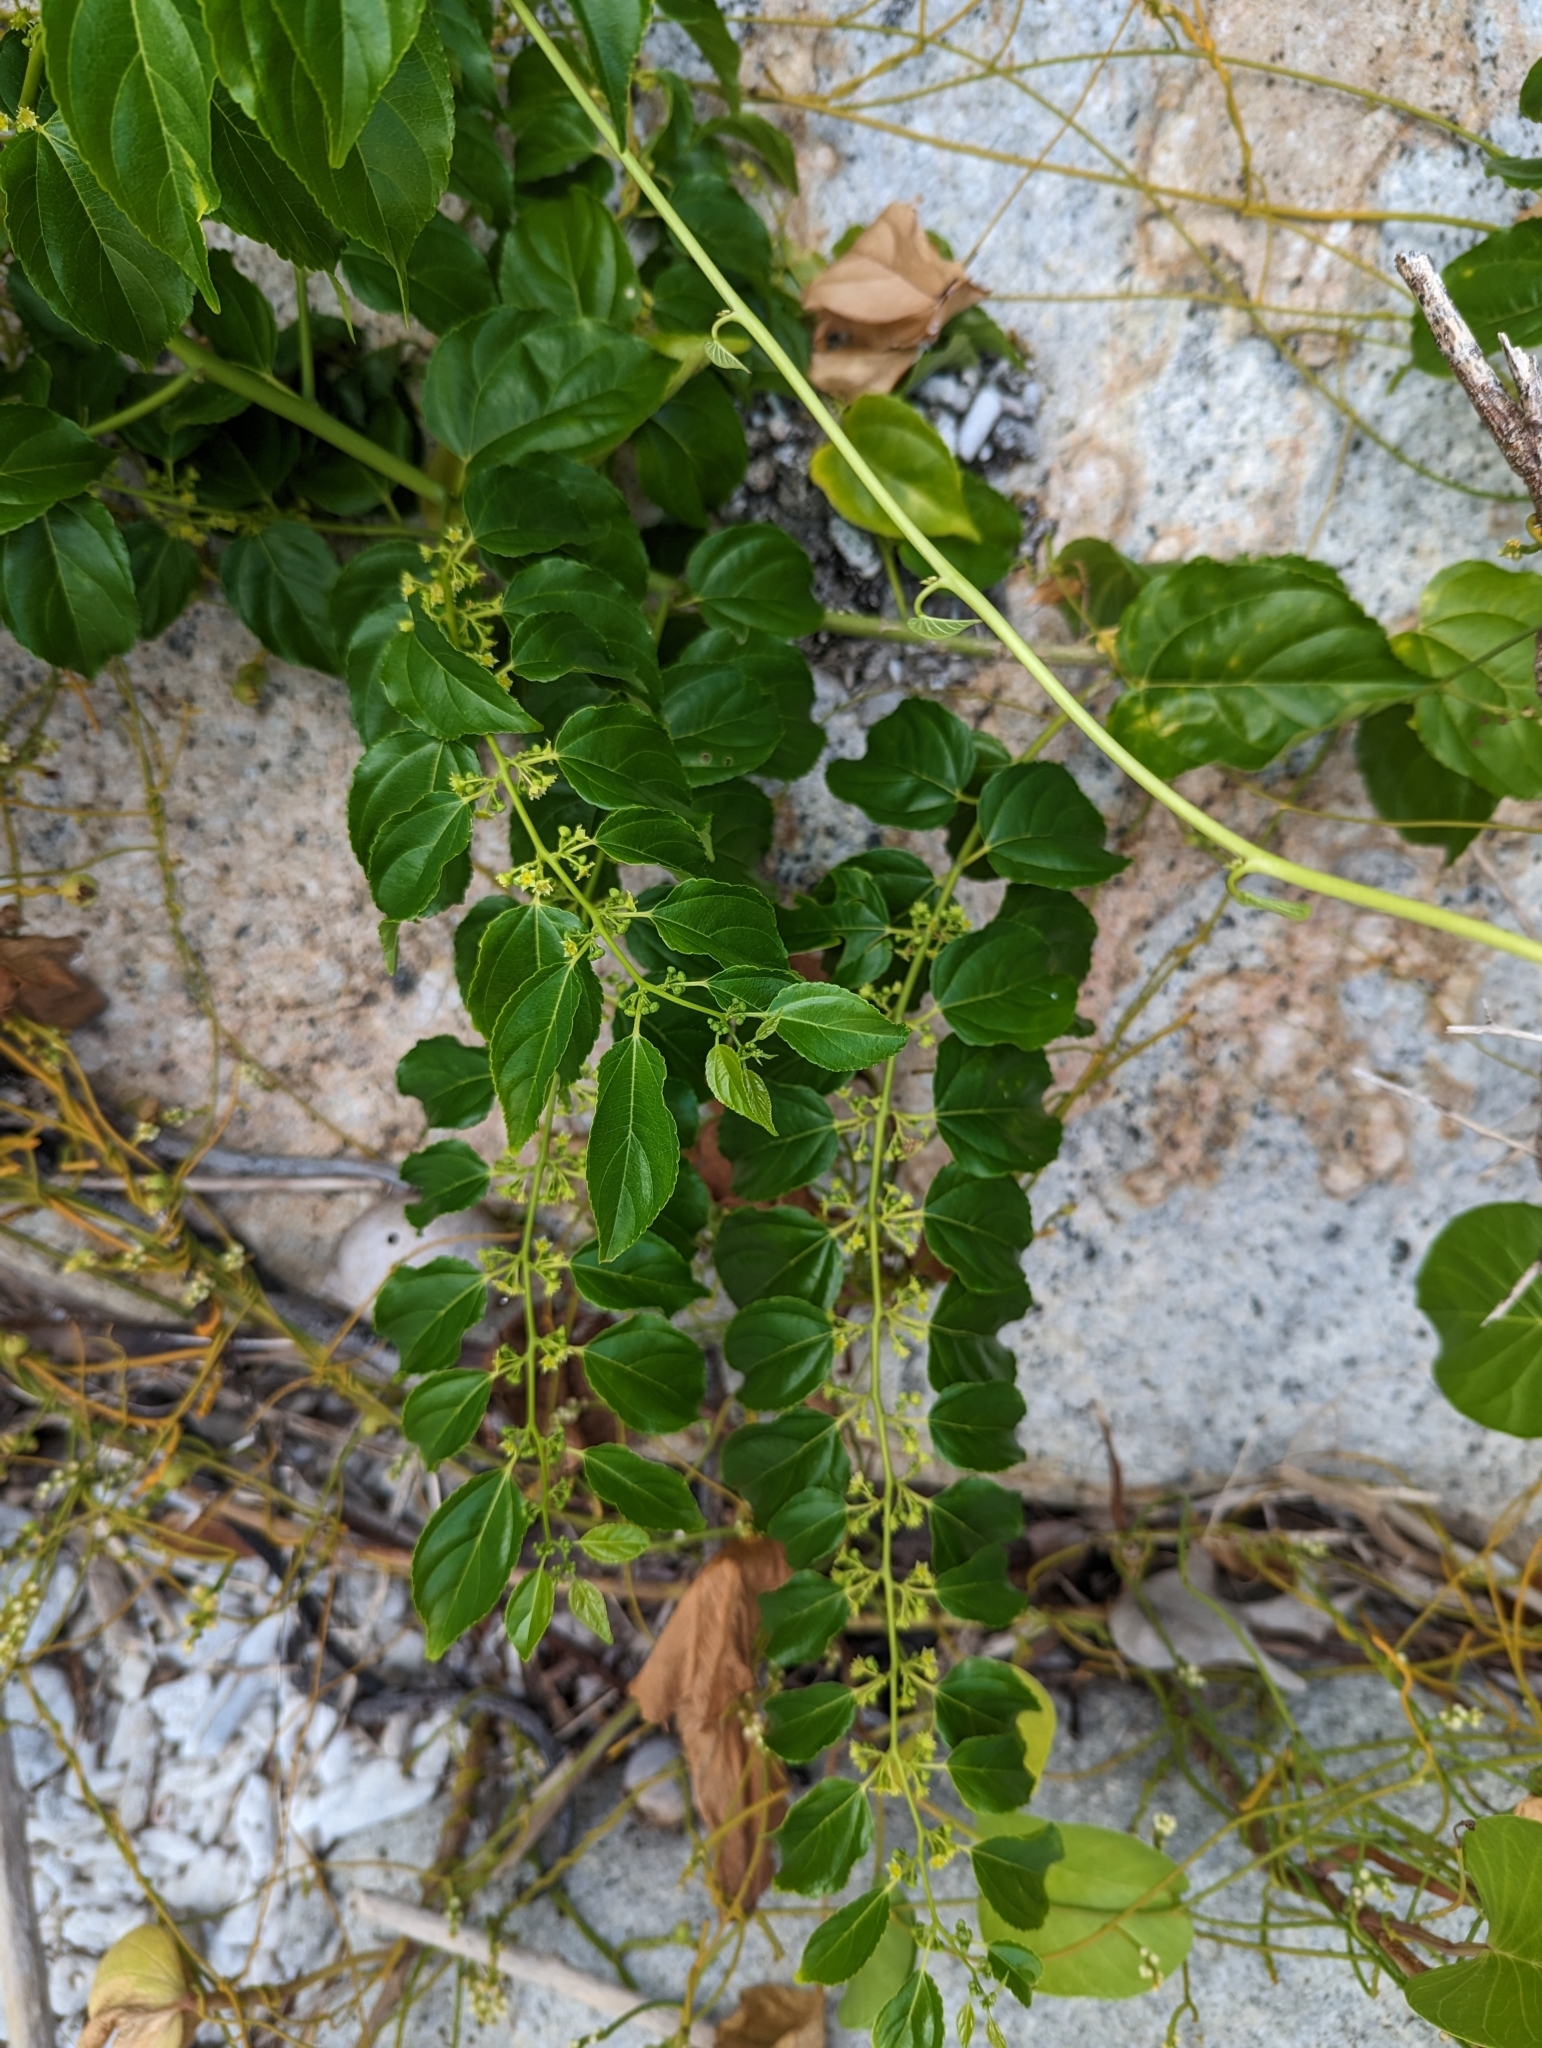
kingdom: Plantae
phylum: Tracheophyta
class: Magnoliopsida
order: Rosales
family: Rhamnaceae
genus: Colubrina
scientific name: Colubrina asiatica
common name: Asian nakedwood
